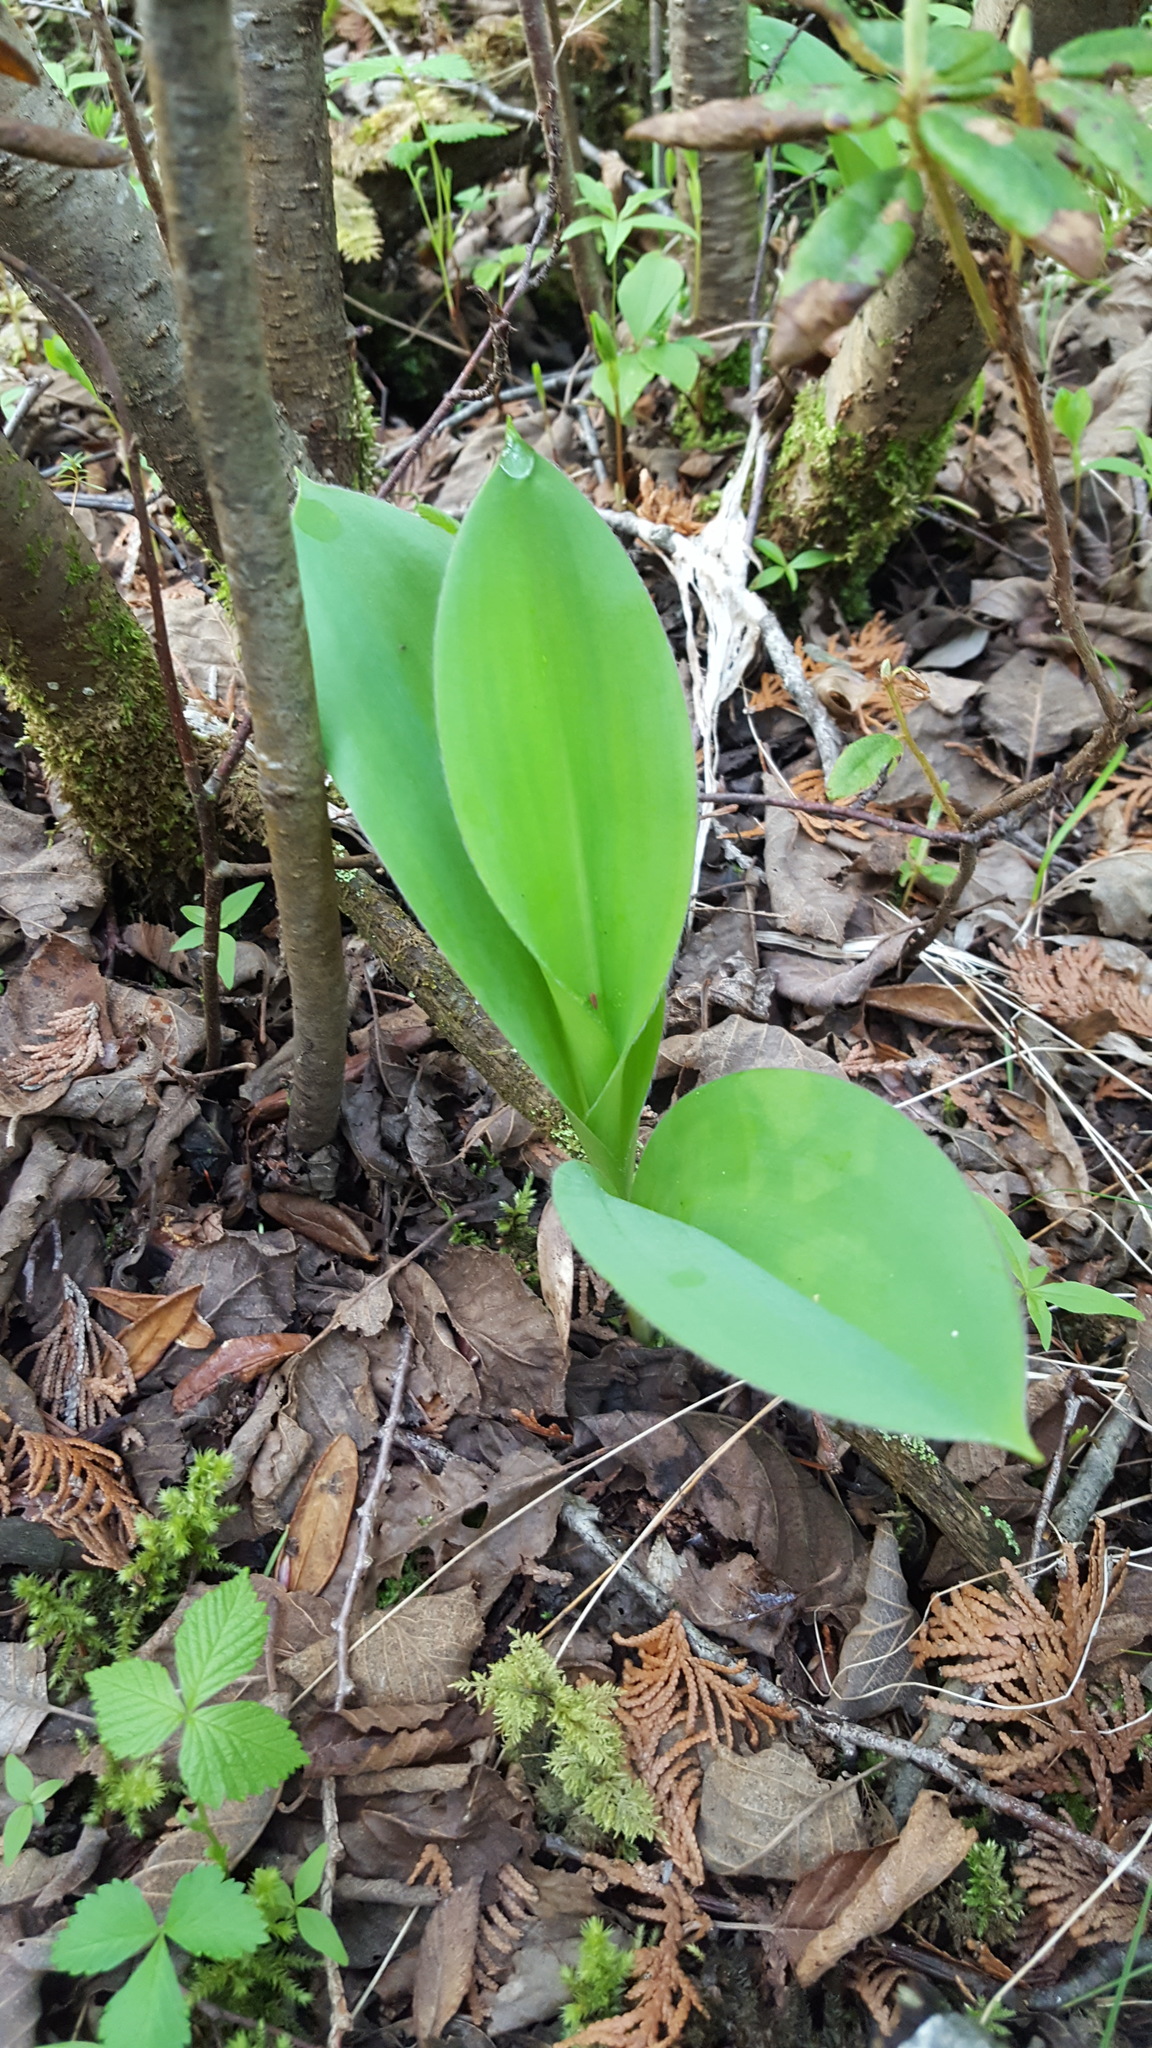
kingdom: Plantae
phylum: Tracheophyta
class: Liliopsida
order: Liliales
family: Liliaceae
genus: Clintonia
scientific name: Clintonia borealis
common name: Yellow clintonia
